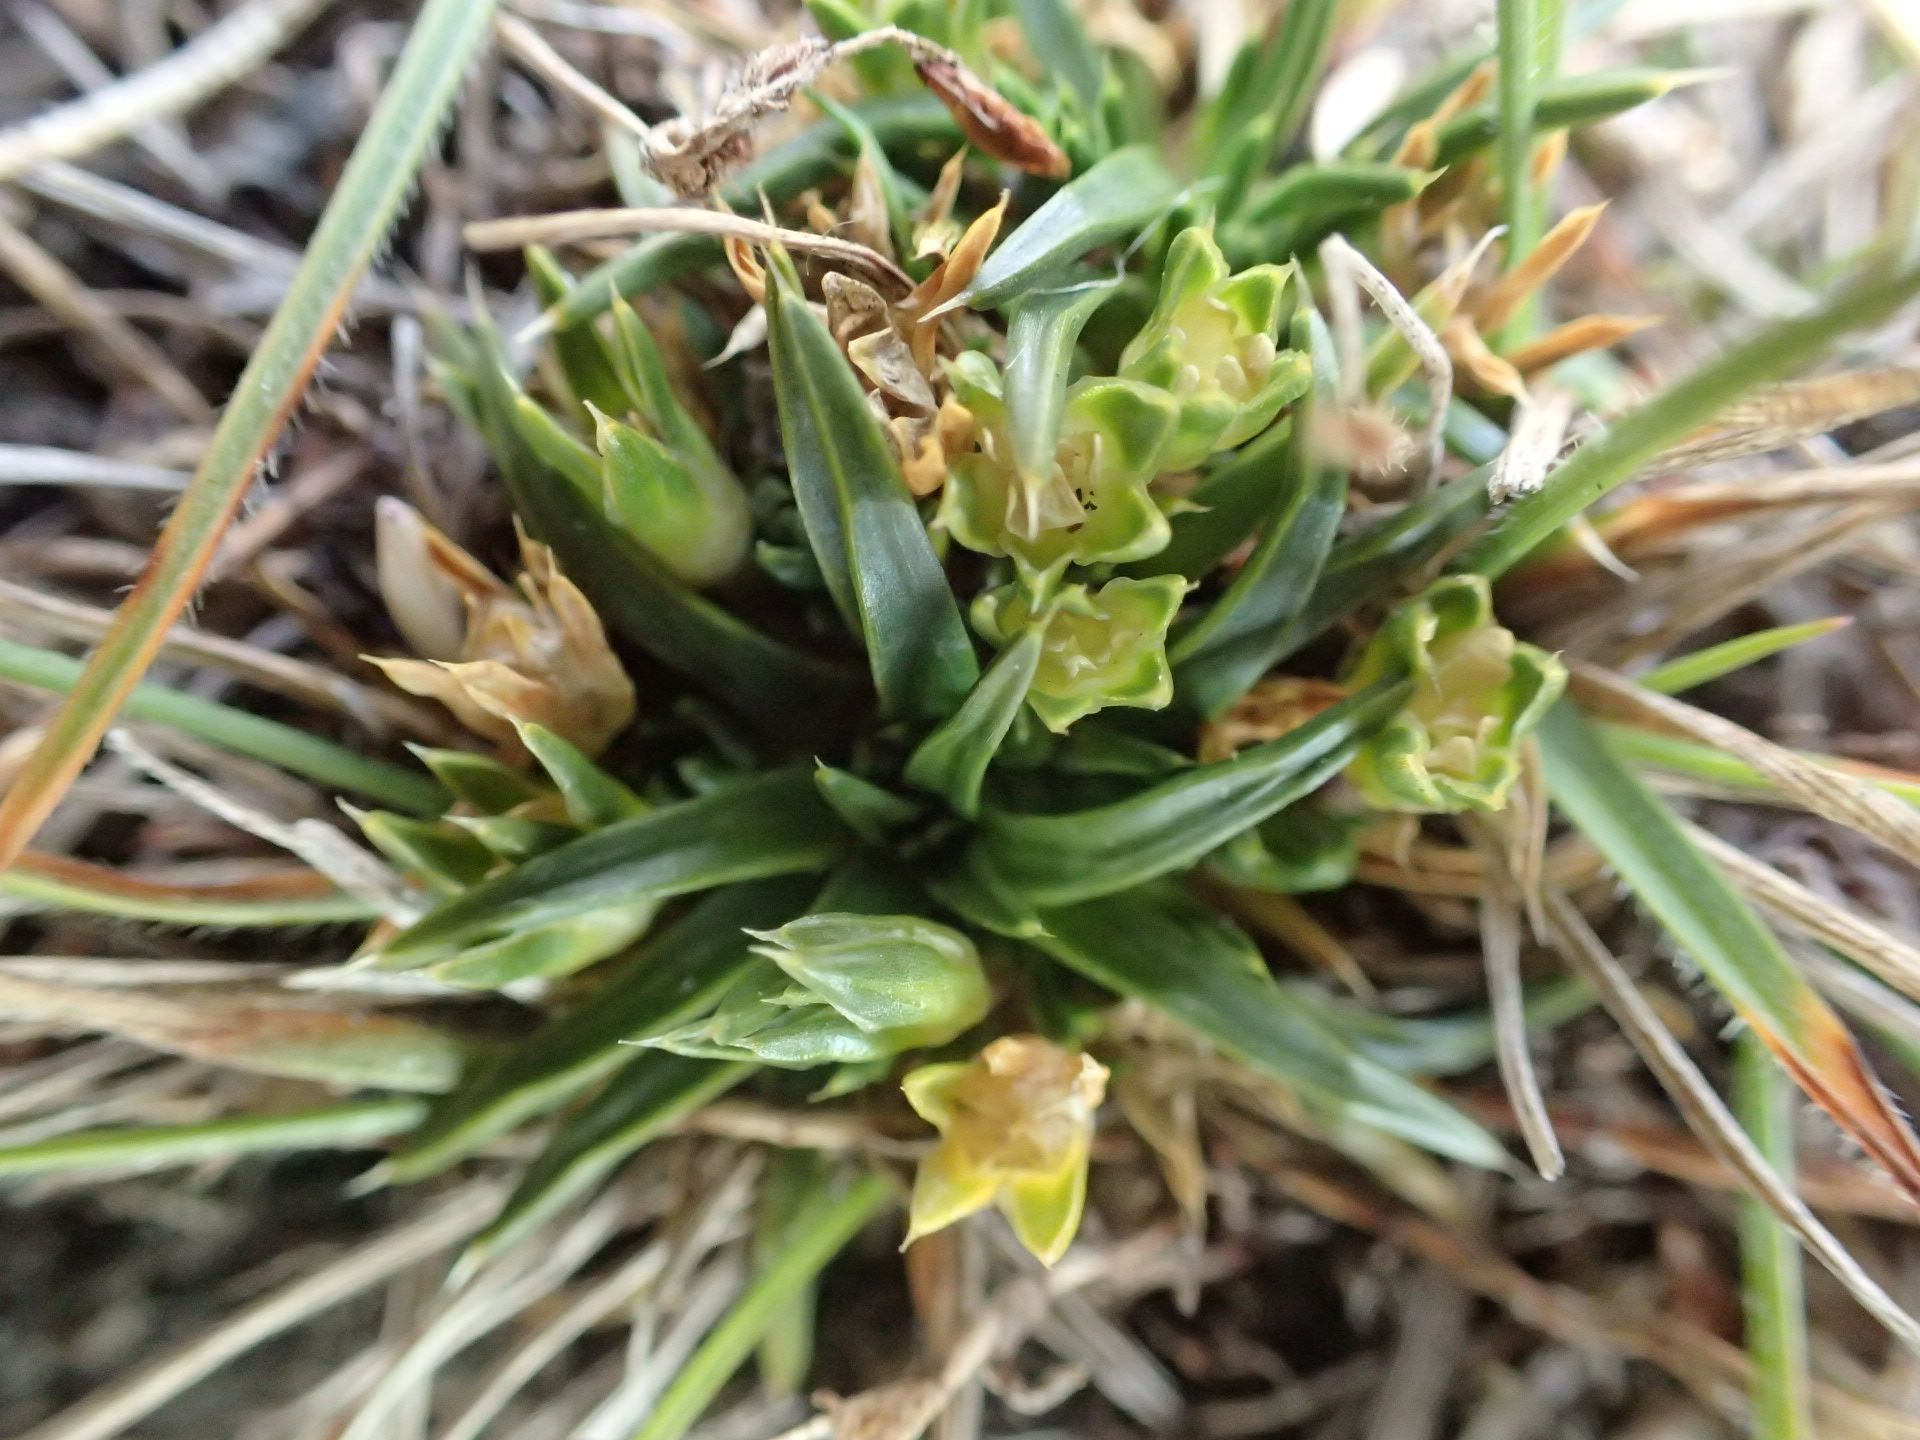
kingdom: Plantae
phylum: Tracheophyta
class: Magnoliopsida
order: Caryophyllales
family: Caryophyllaceae
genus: Colobanthus
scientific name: Colobanthus muelleri
